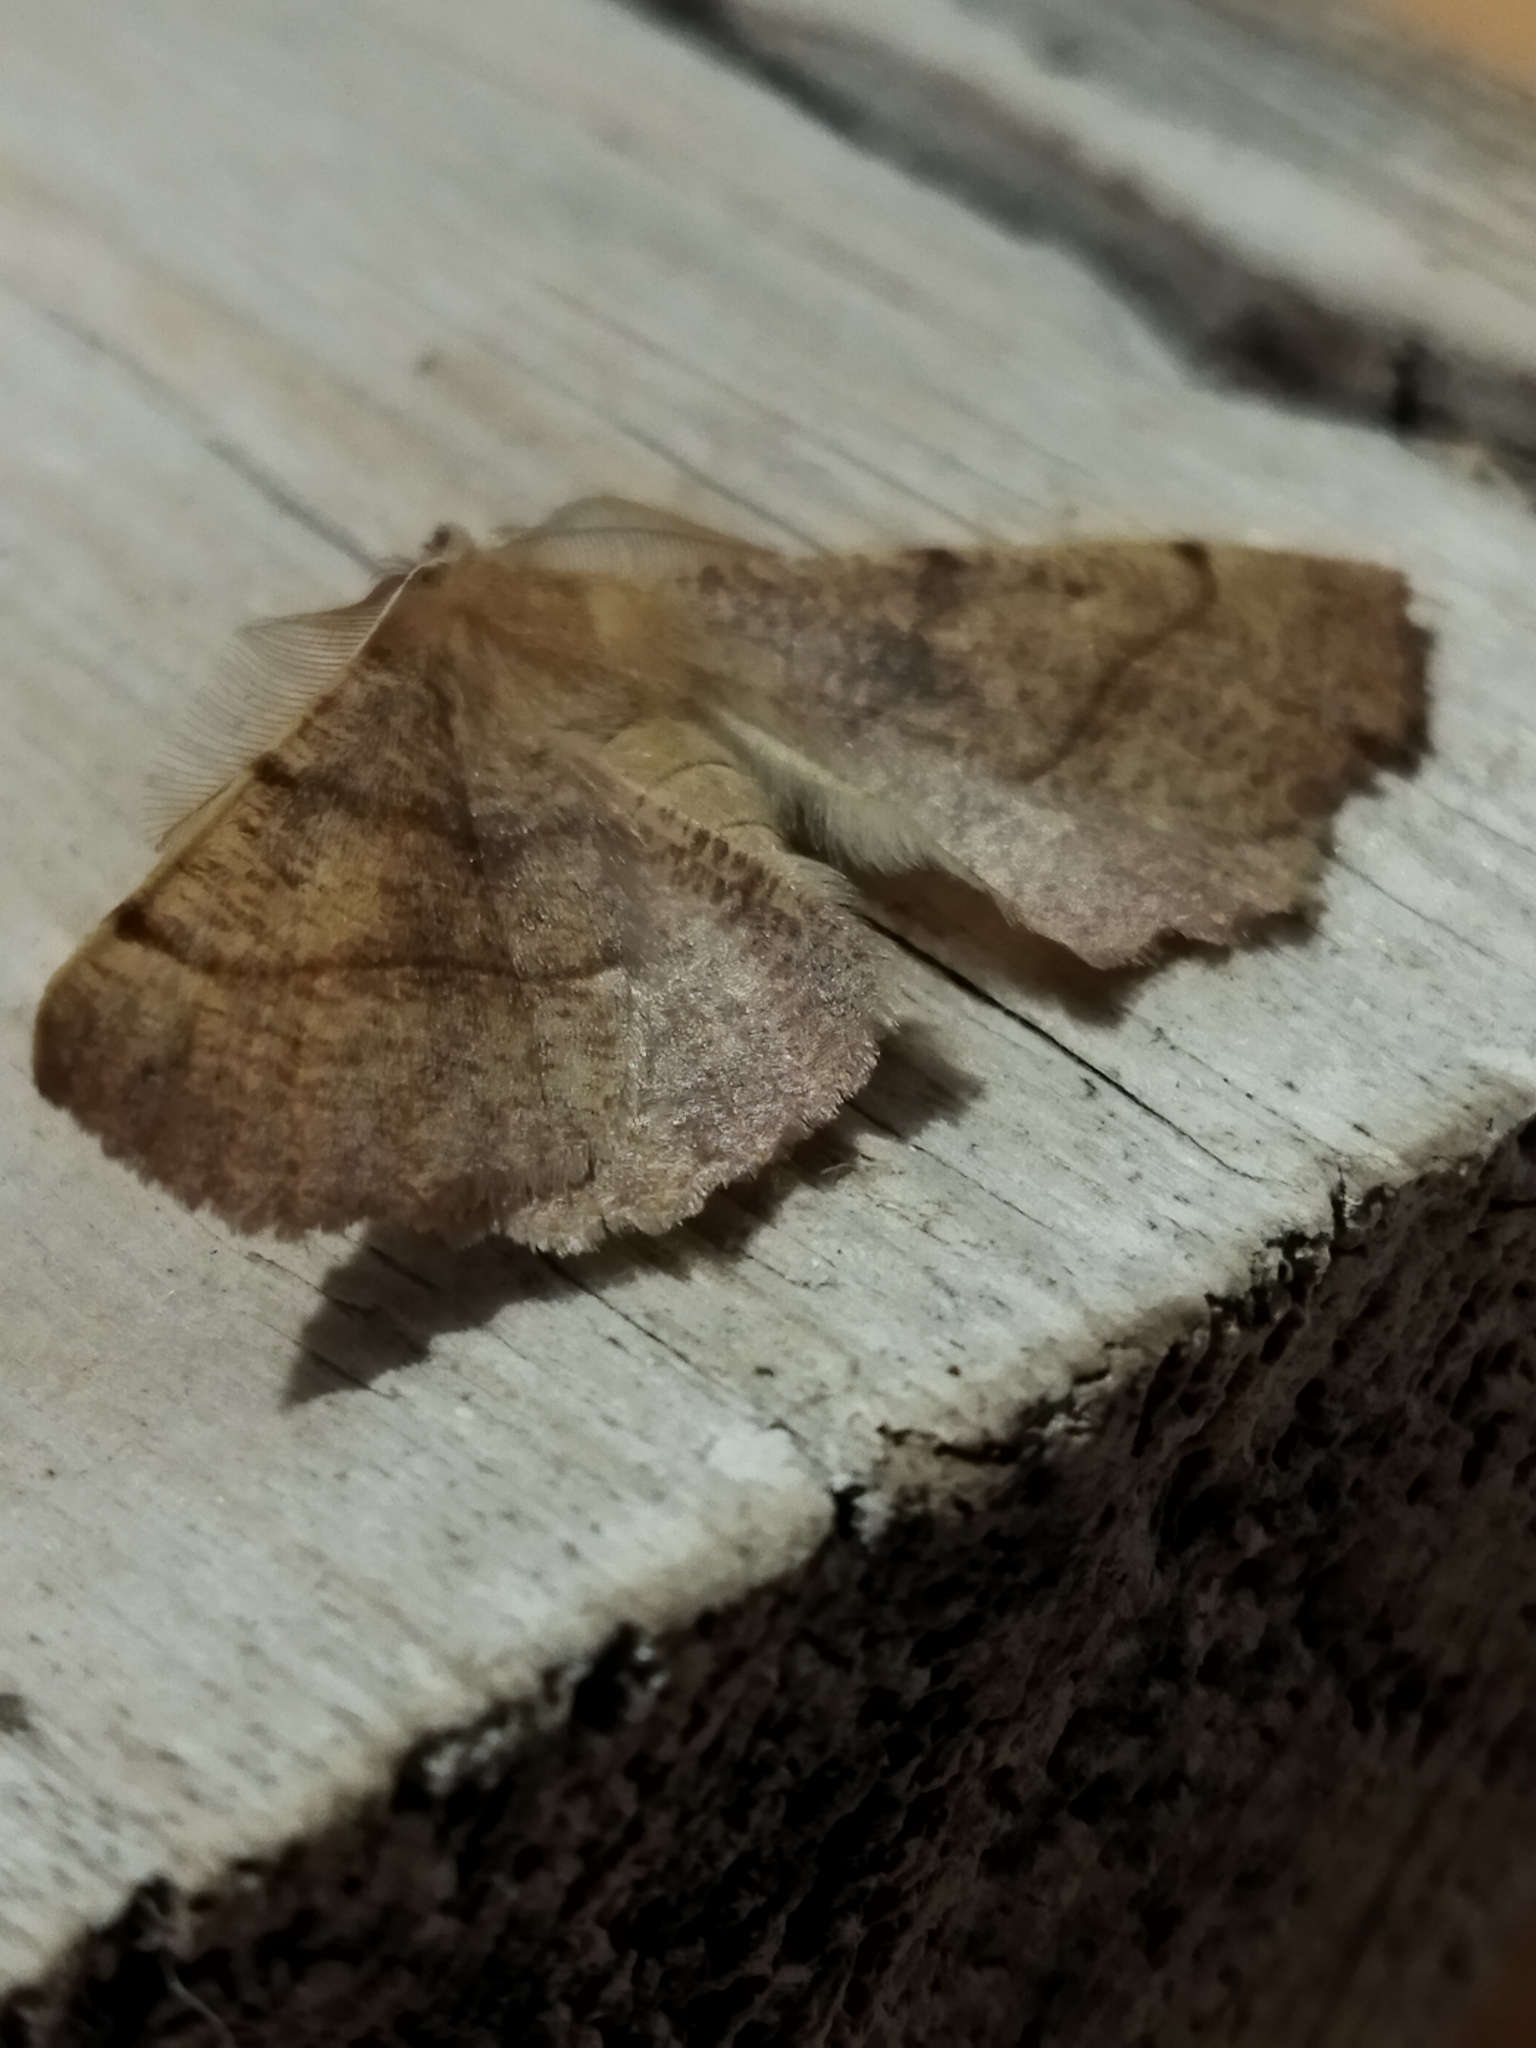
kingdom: Animalia
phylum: Arthropoda
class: Insecta
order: Lepidoptera
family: Geometridae
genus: Colotois
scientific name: Colotois pennaria
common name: Feathered thorn
